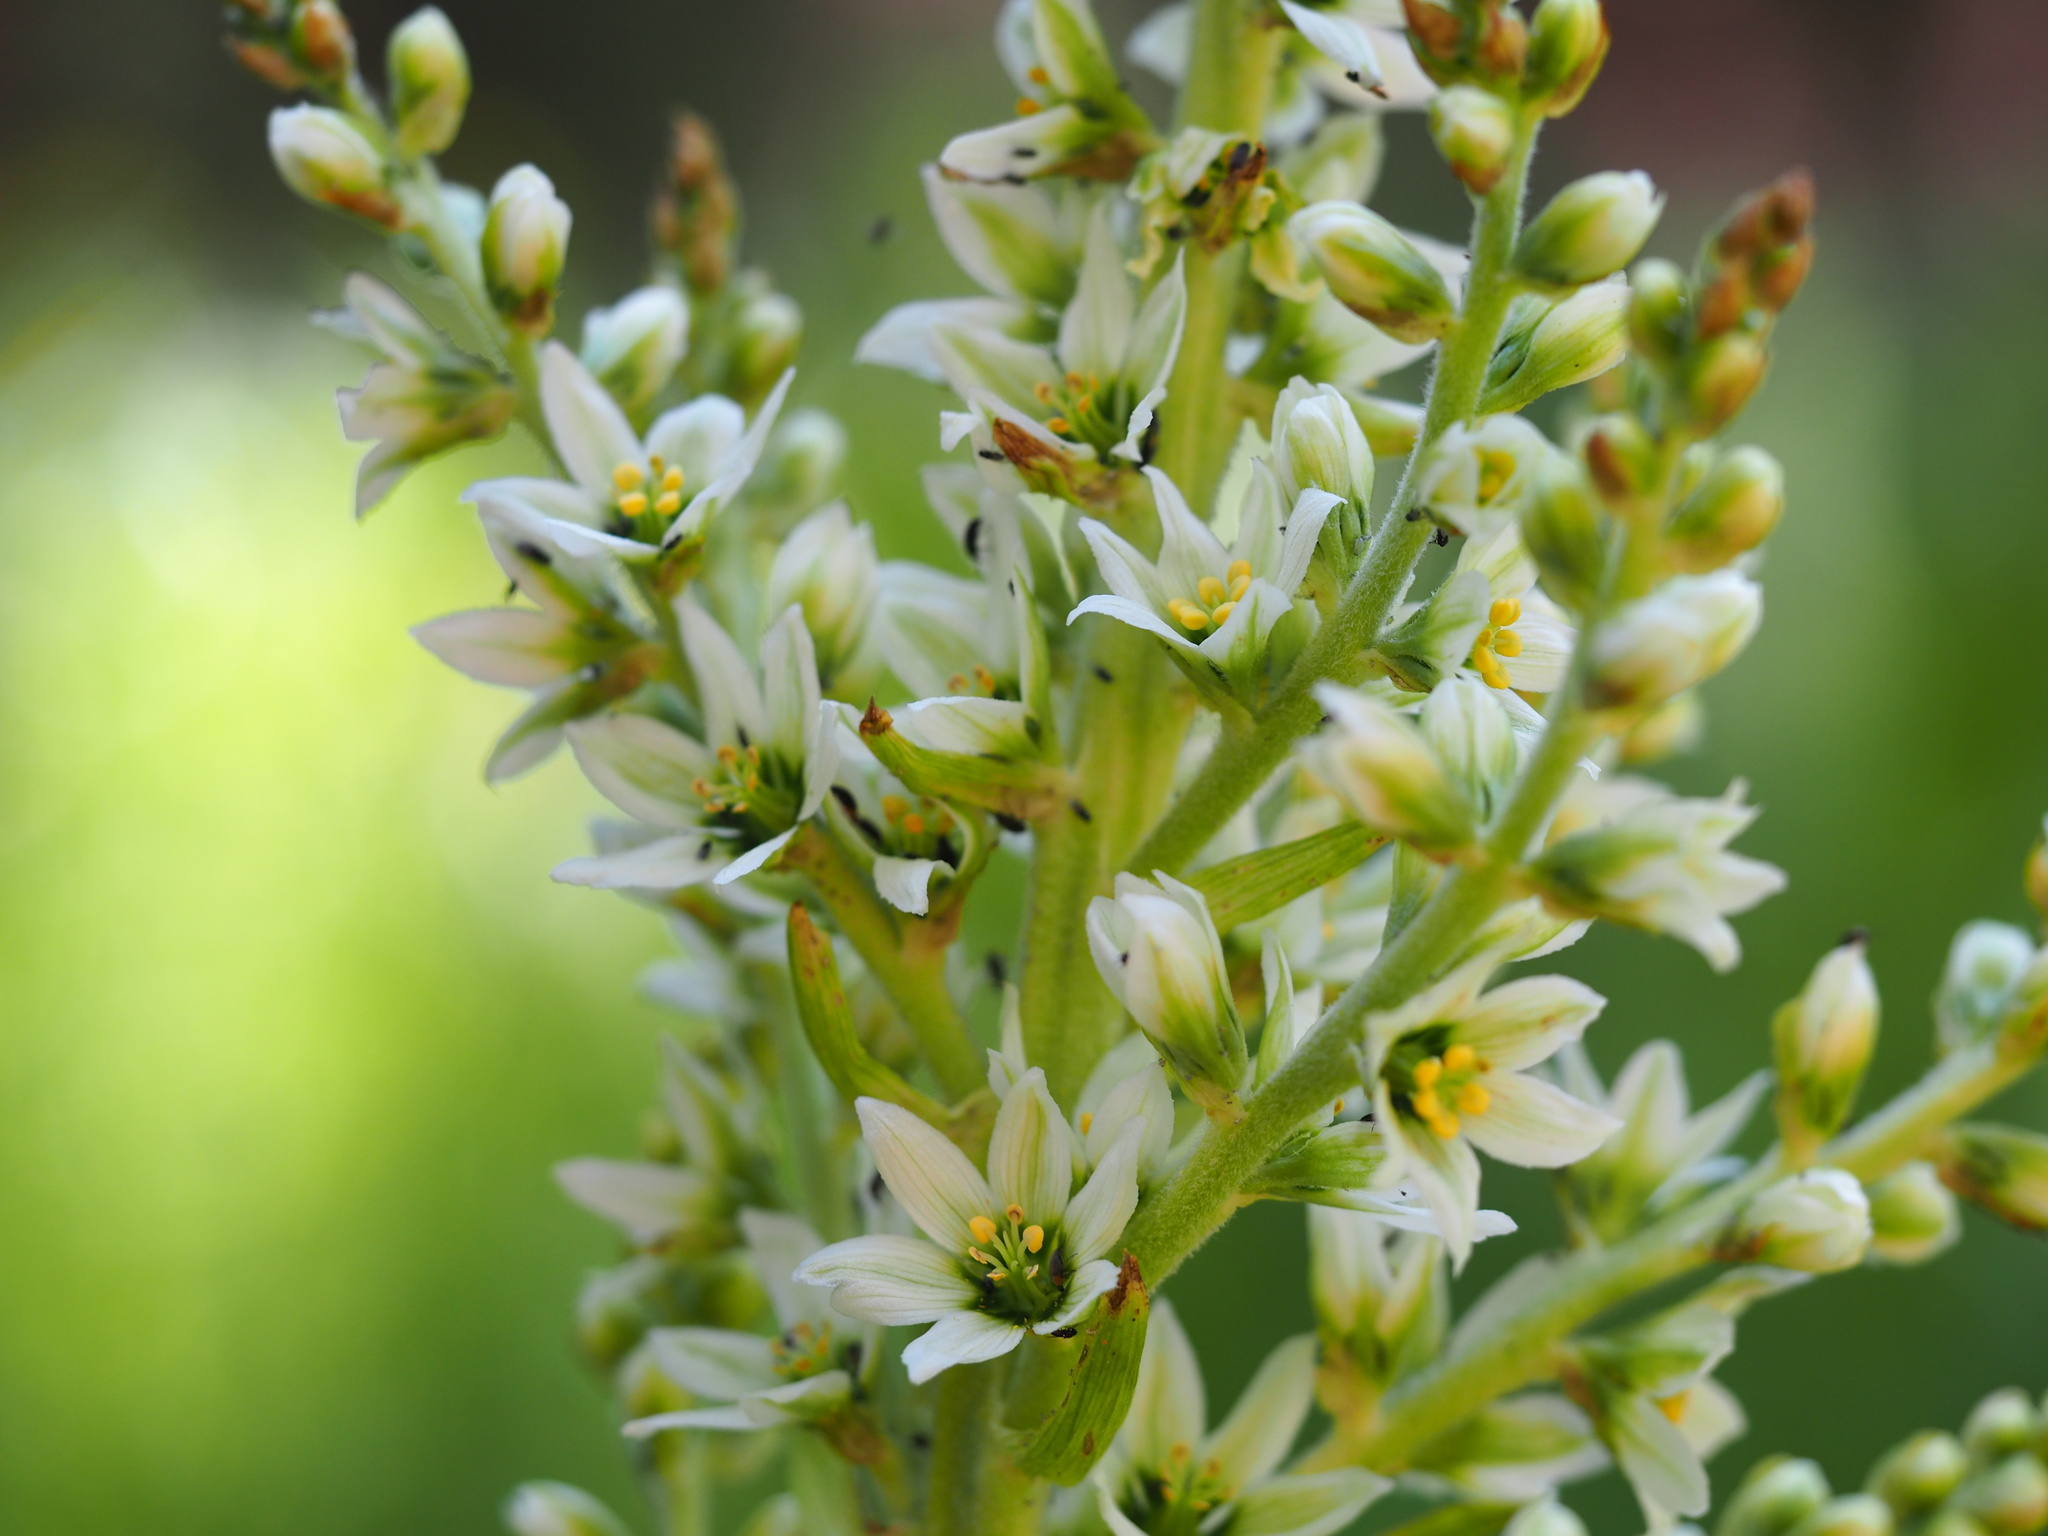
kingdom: Plantae
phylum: Tracheophyta
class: Liliopsida
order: Liliales
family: Melanthiaceae
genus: Veratrum
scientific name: Veratrum californicum
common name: California veratrum
